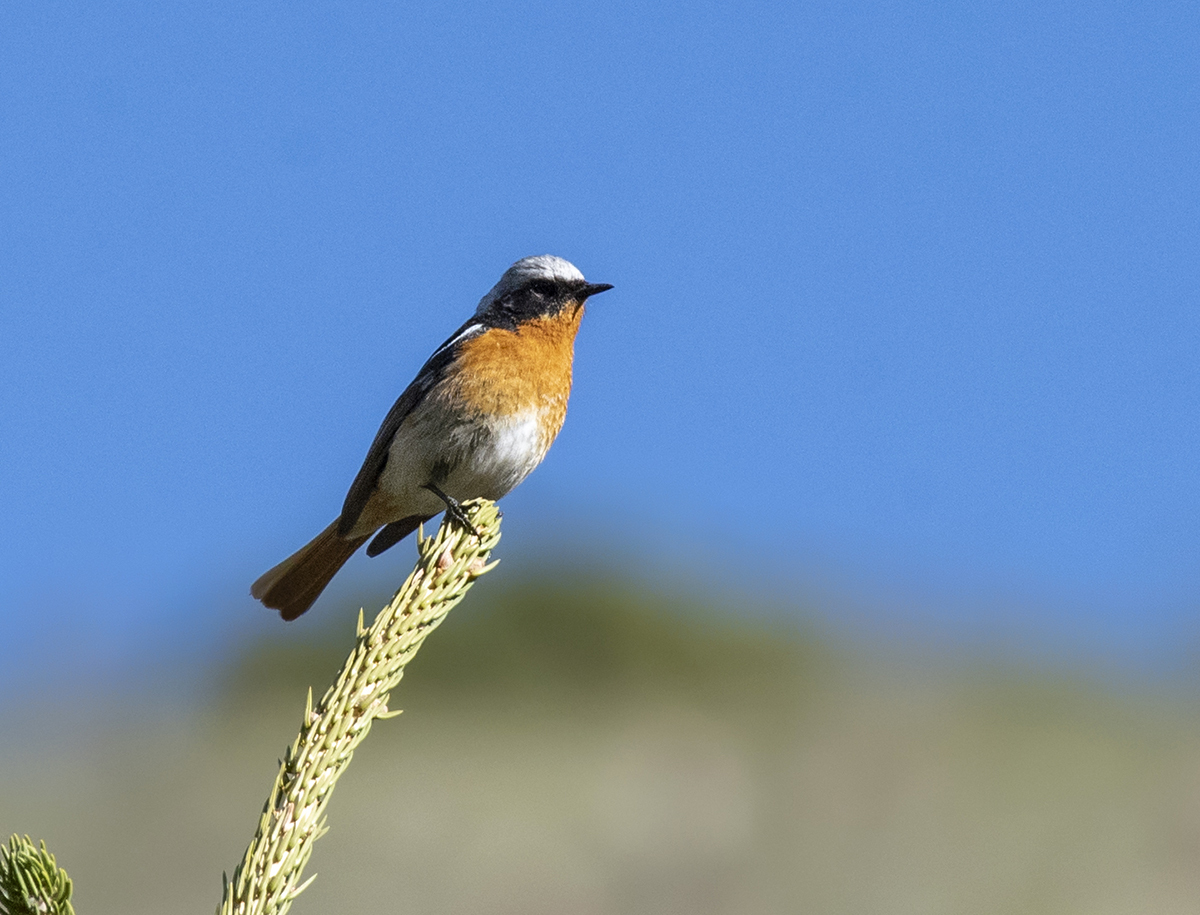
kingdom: Animalia
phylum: Chordata
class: Aves
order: Passeriformes
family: Muscicapidae
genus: Phoenicurus
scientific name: Phoenicurus erythronotus
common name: Eversmann's redstart
